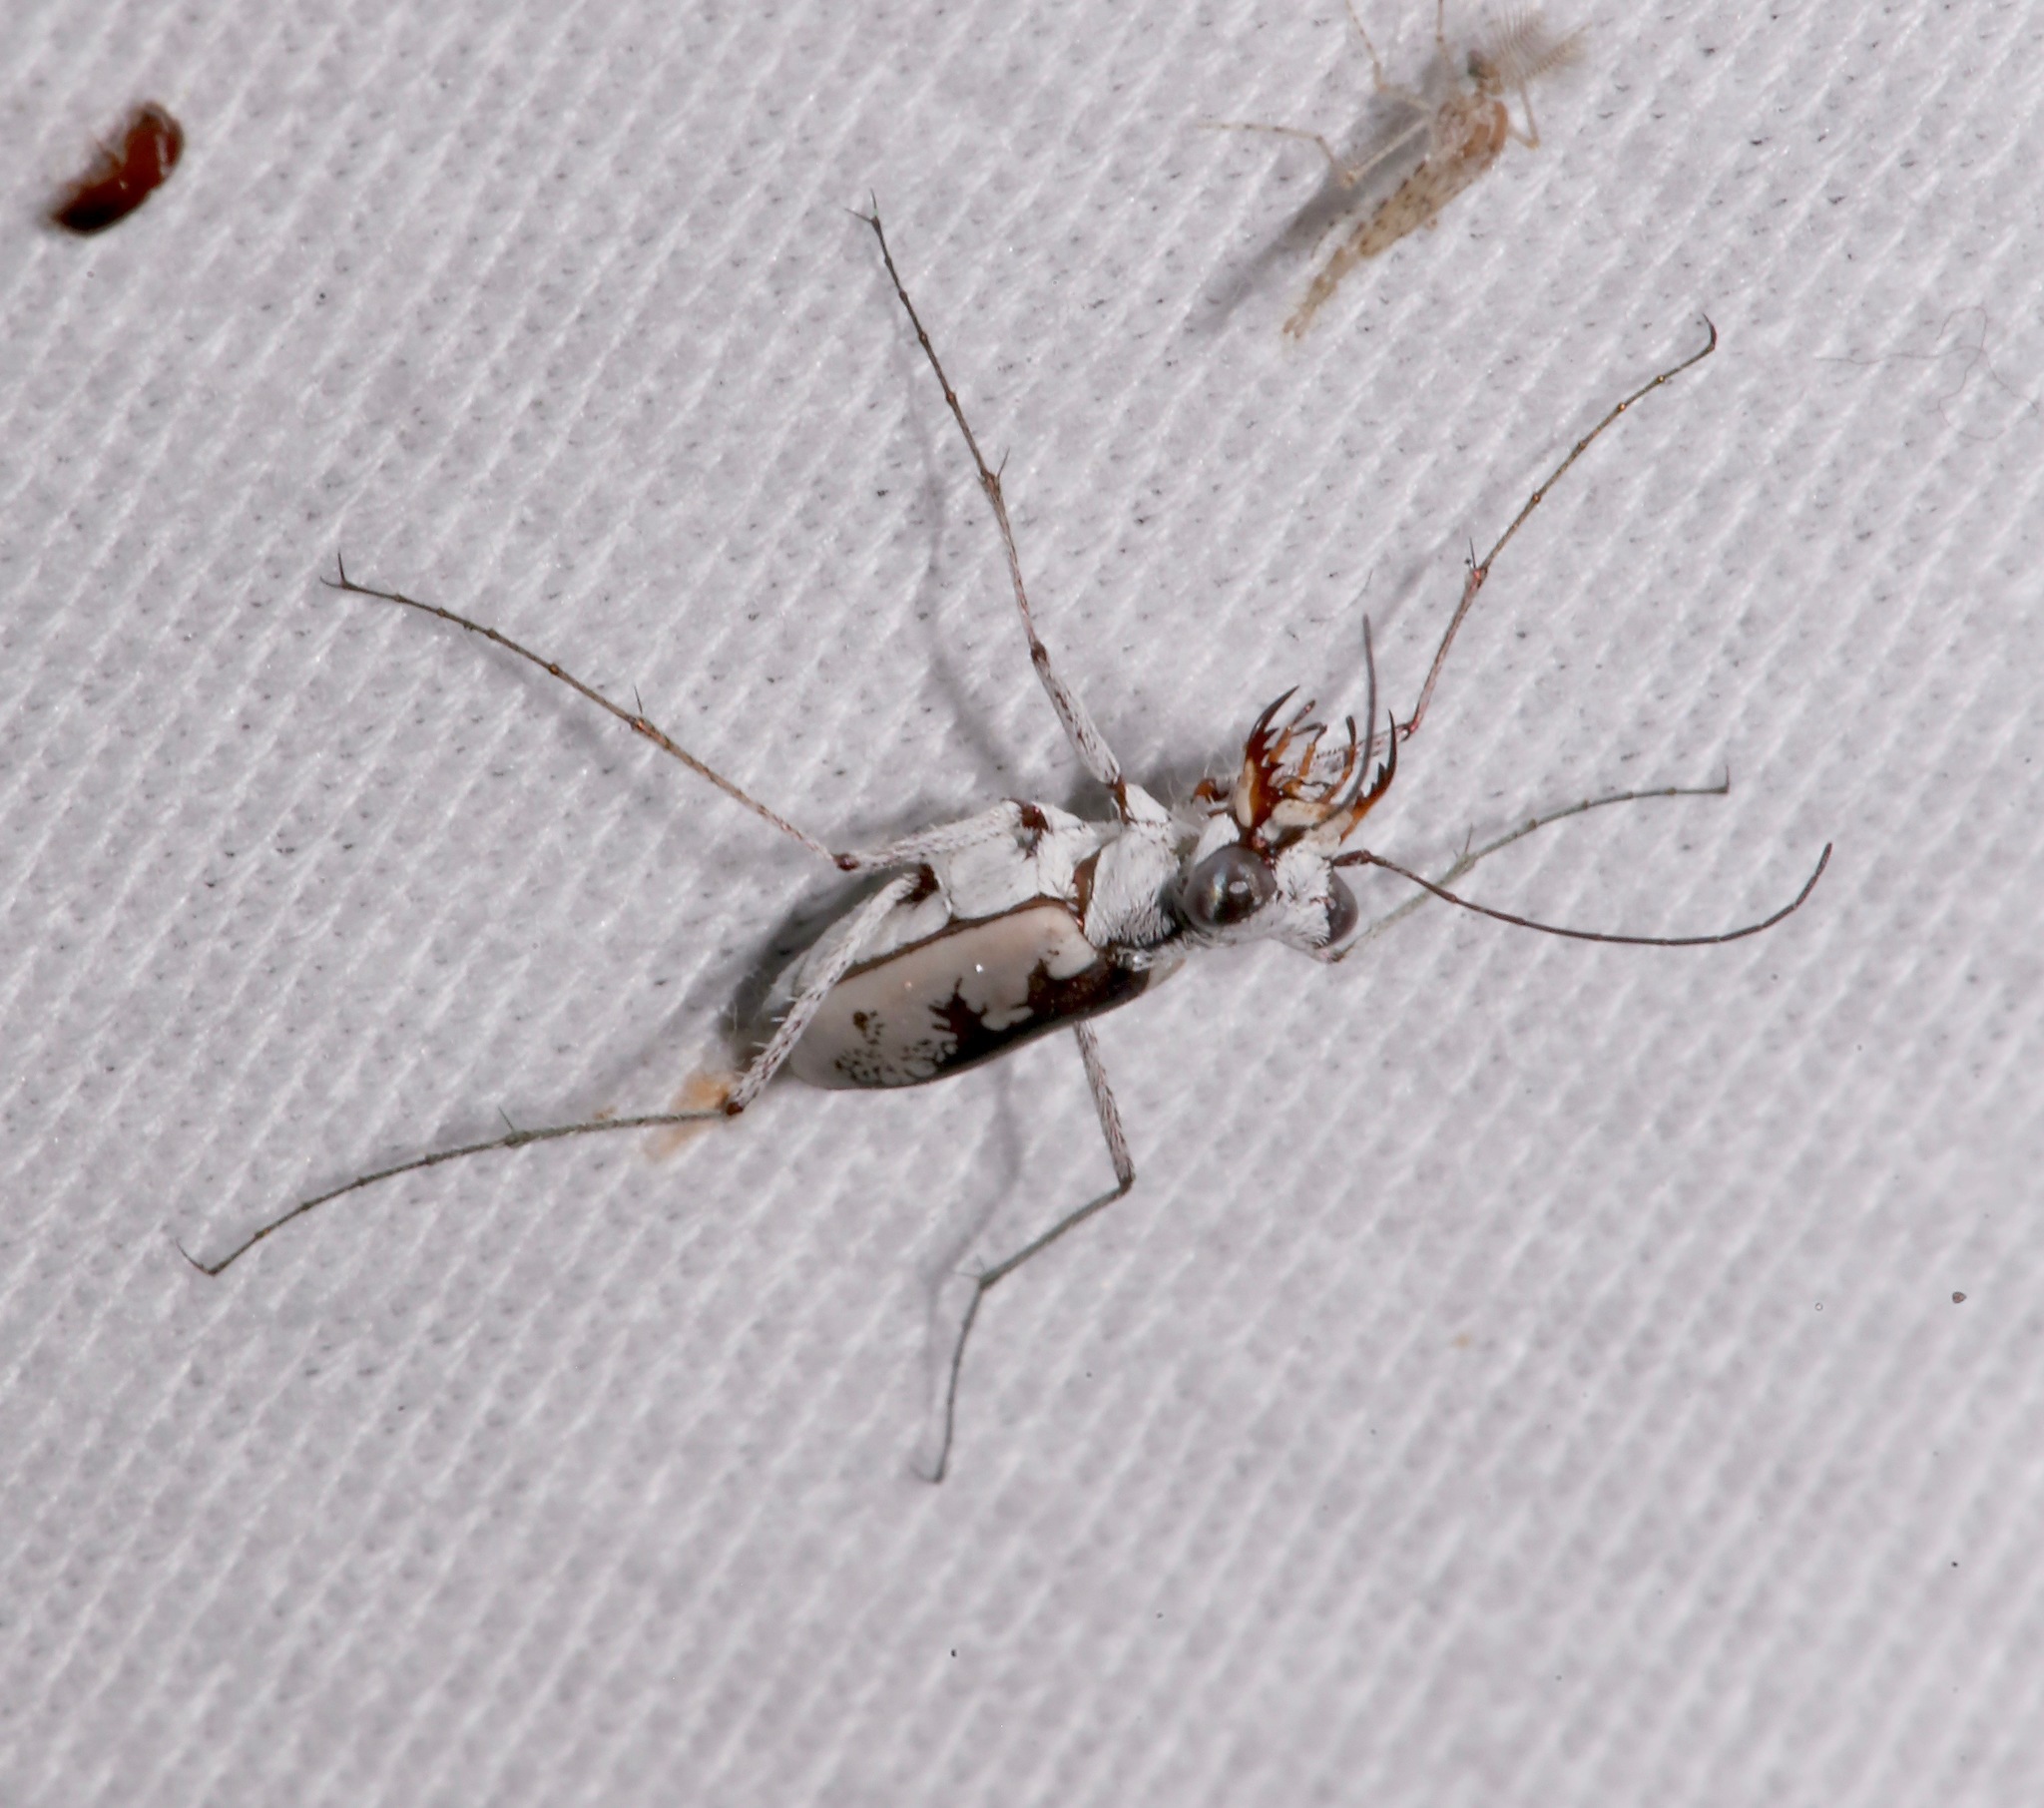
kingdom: Animalia
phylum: Arthropoda
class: Insecta
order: Coleoptera
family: Carabidae
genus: Ellipsoptera
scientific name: Ellipsoptera hirtilabris
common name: Moustached tiger beetle
